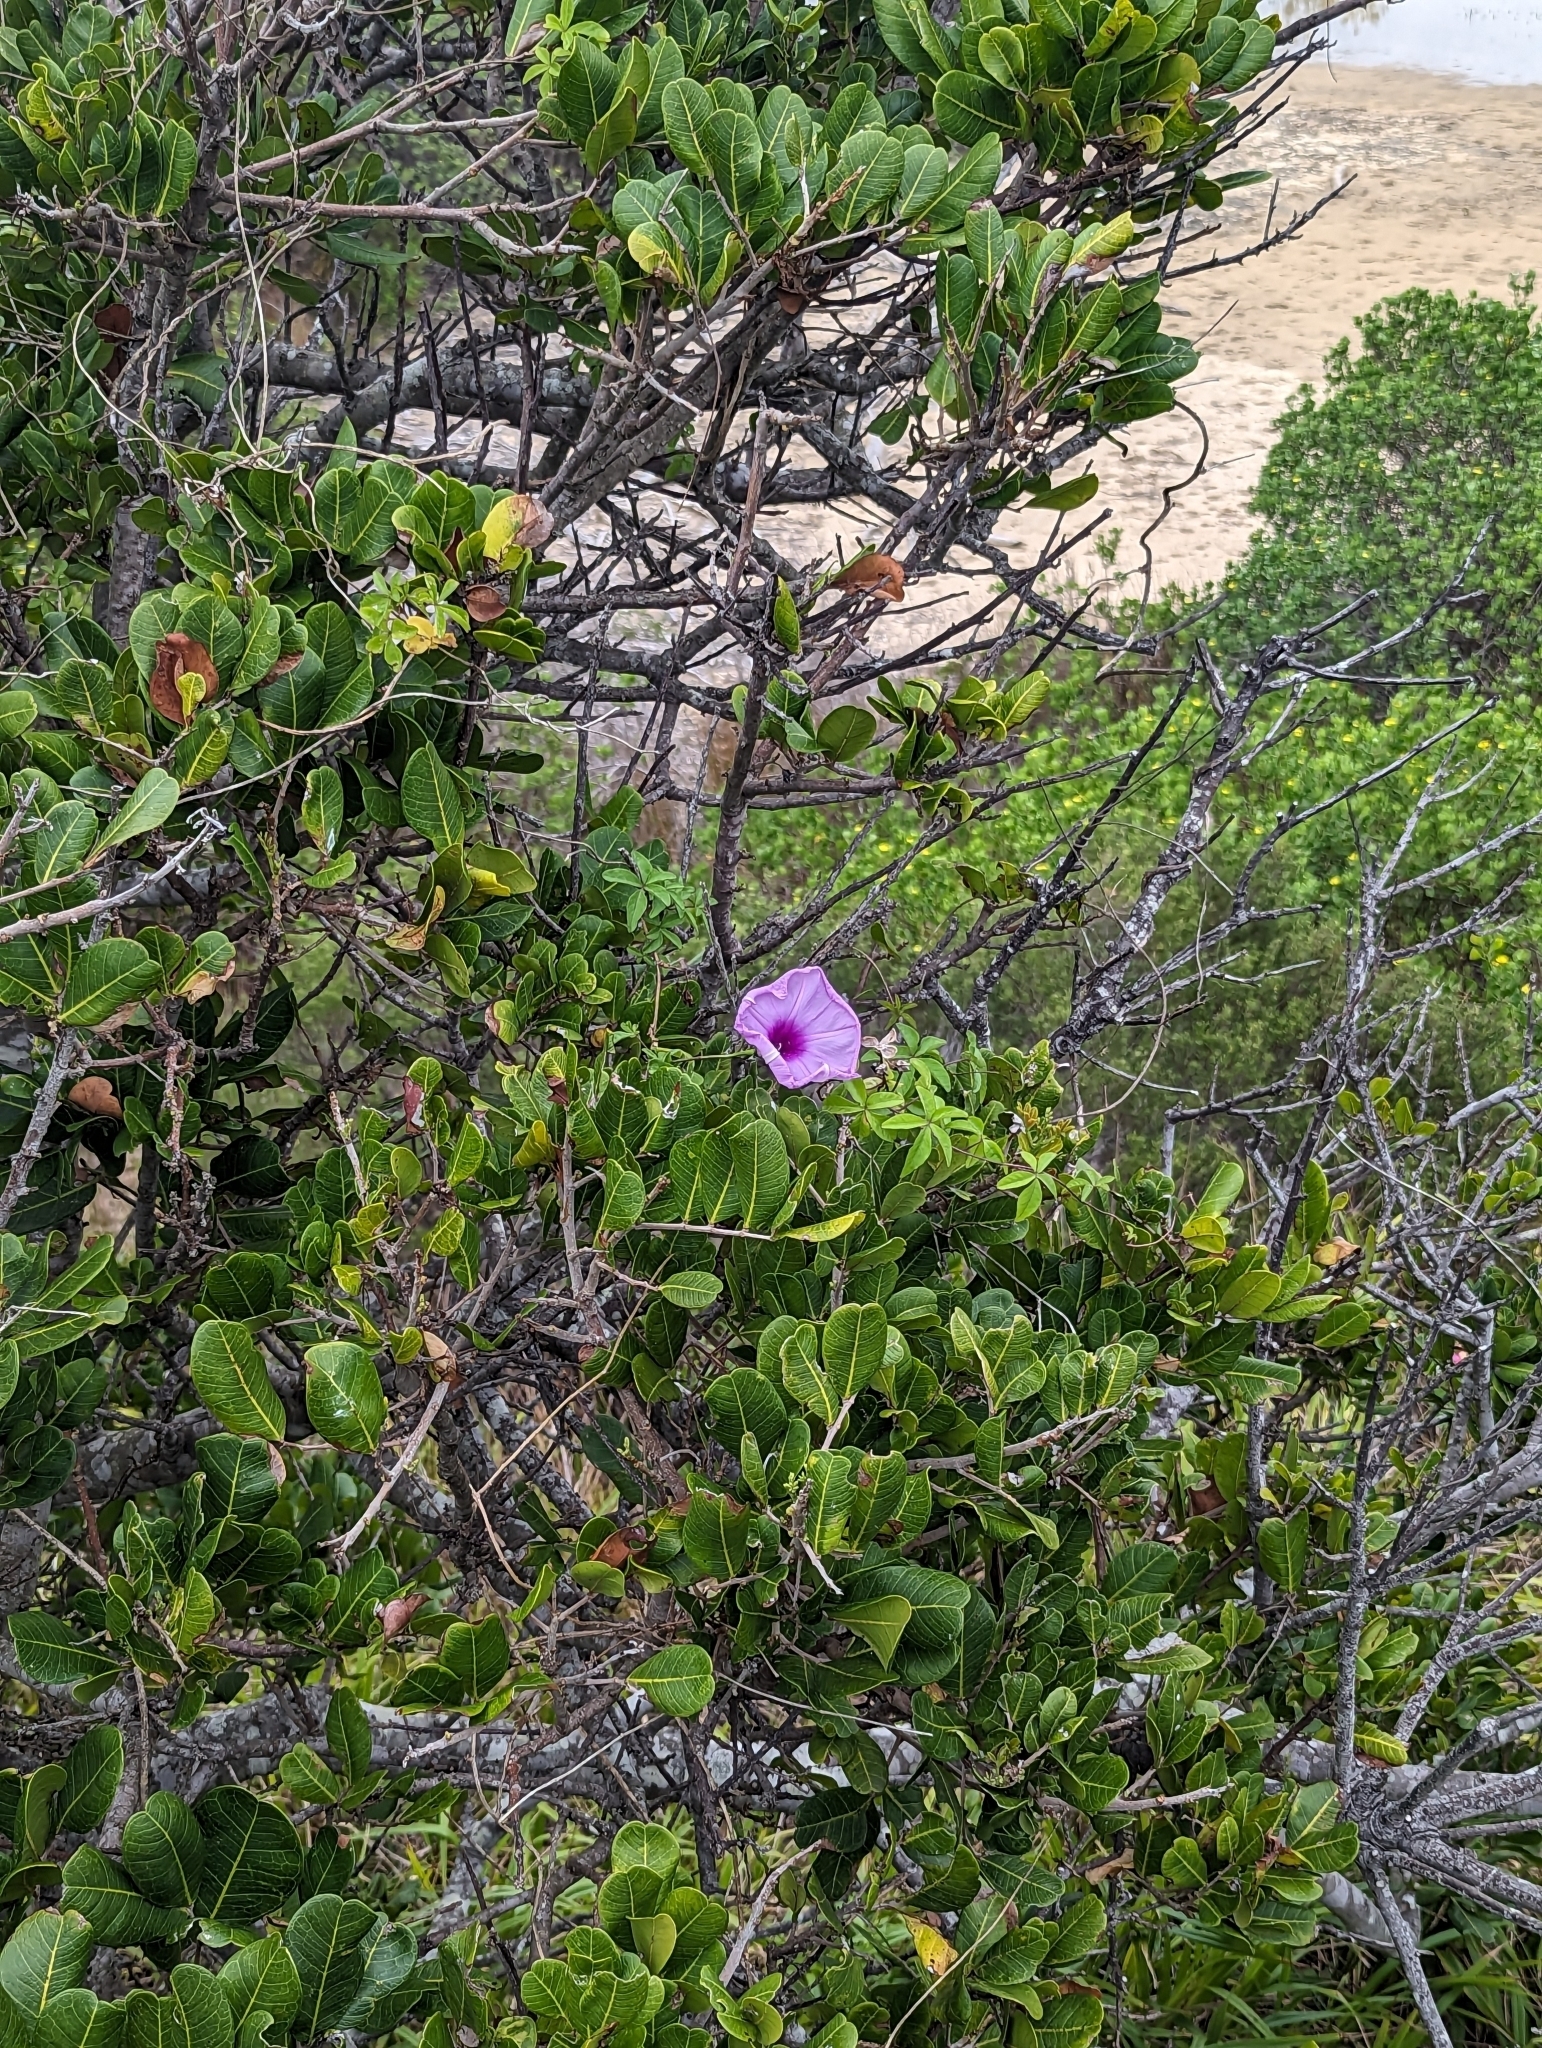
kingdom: Plantae
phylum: Tracheophyta
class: Magnoliopsida
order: Solanales
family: Convolvulaceae
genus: Ipomoea
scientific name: Ipomoea cairica
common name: Mile a minute vine
